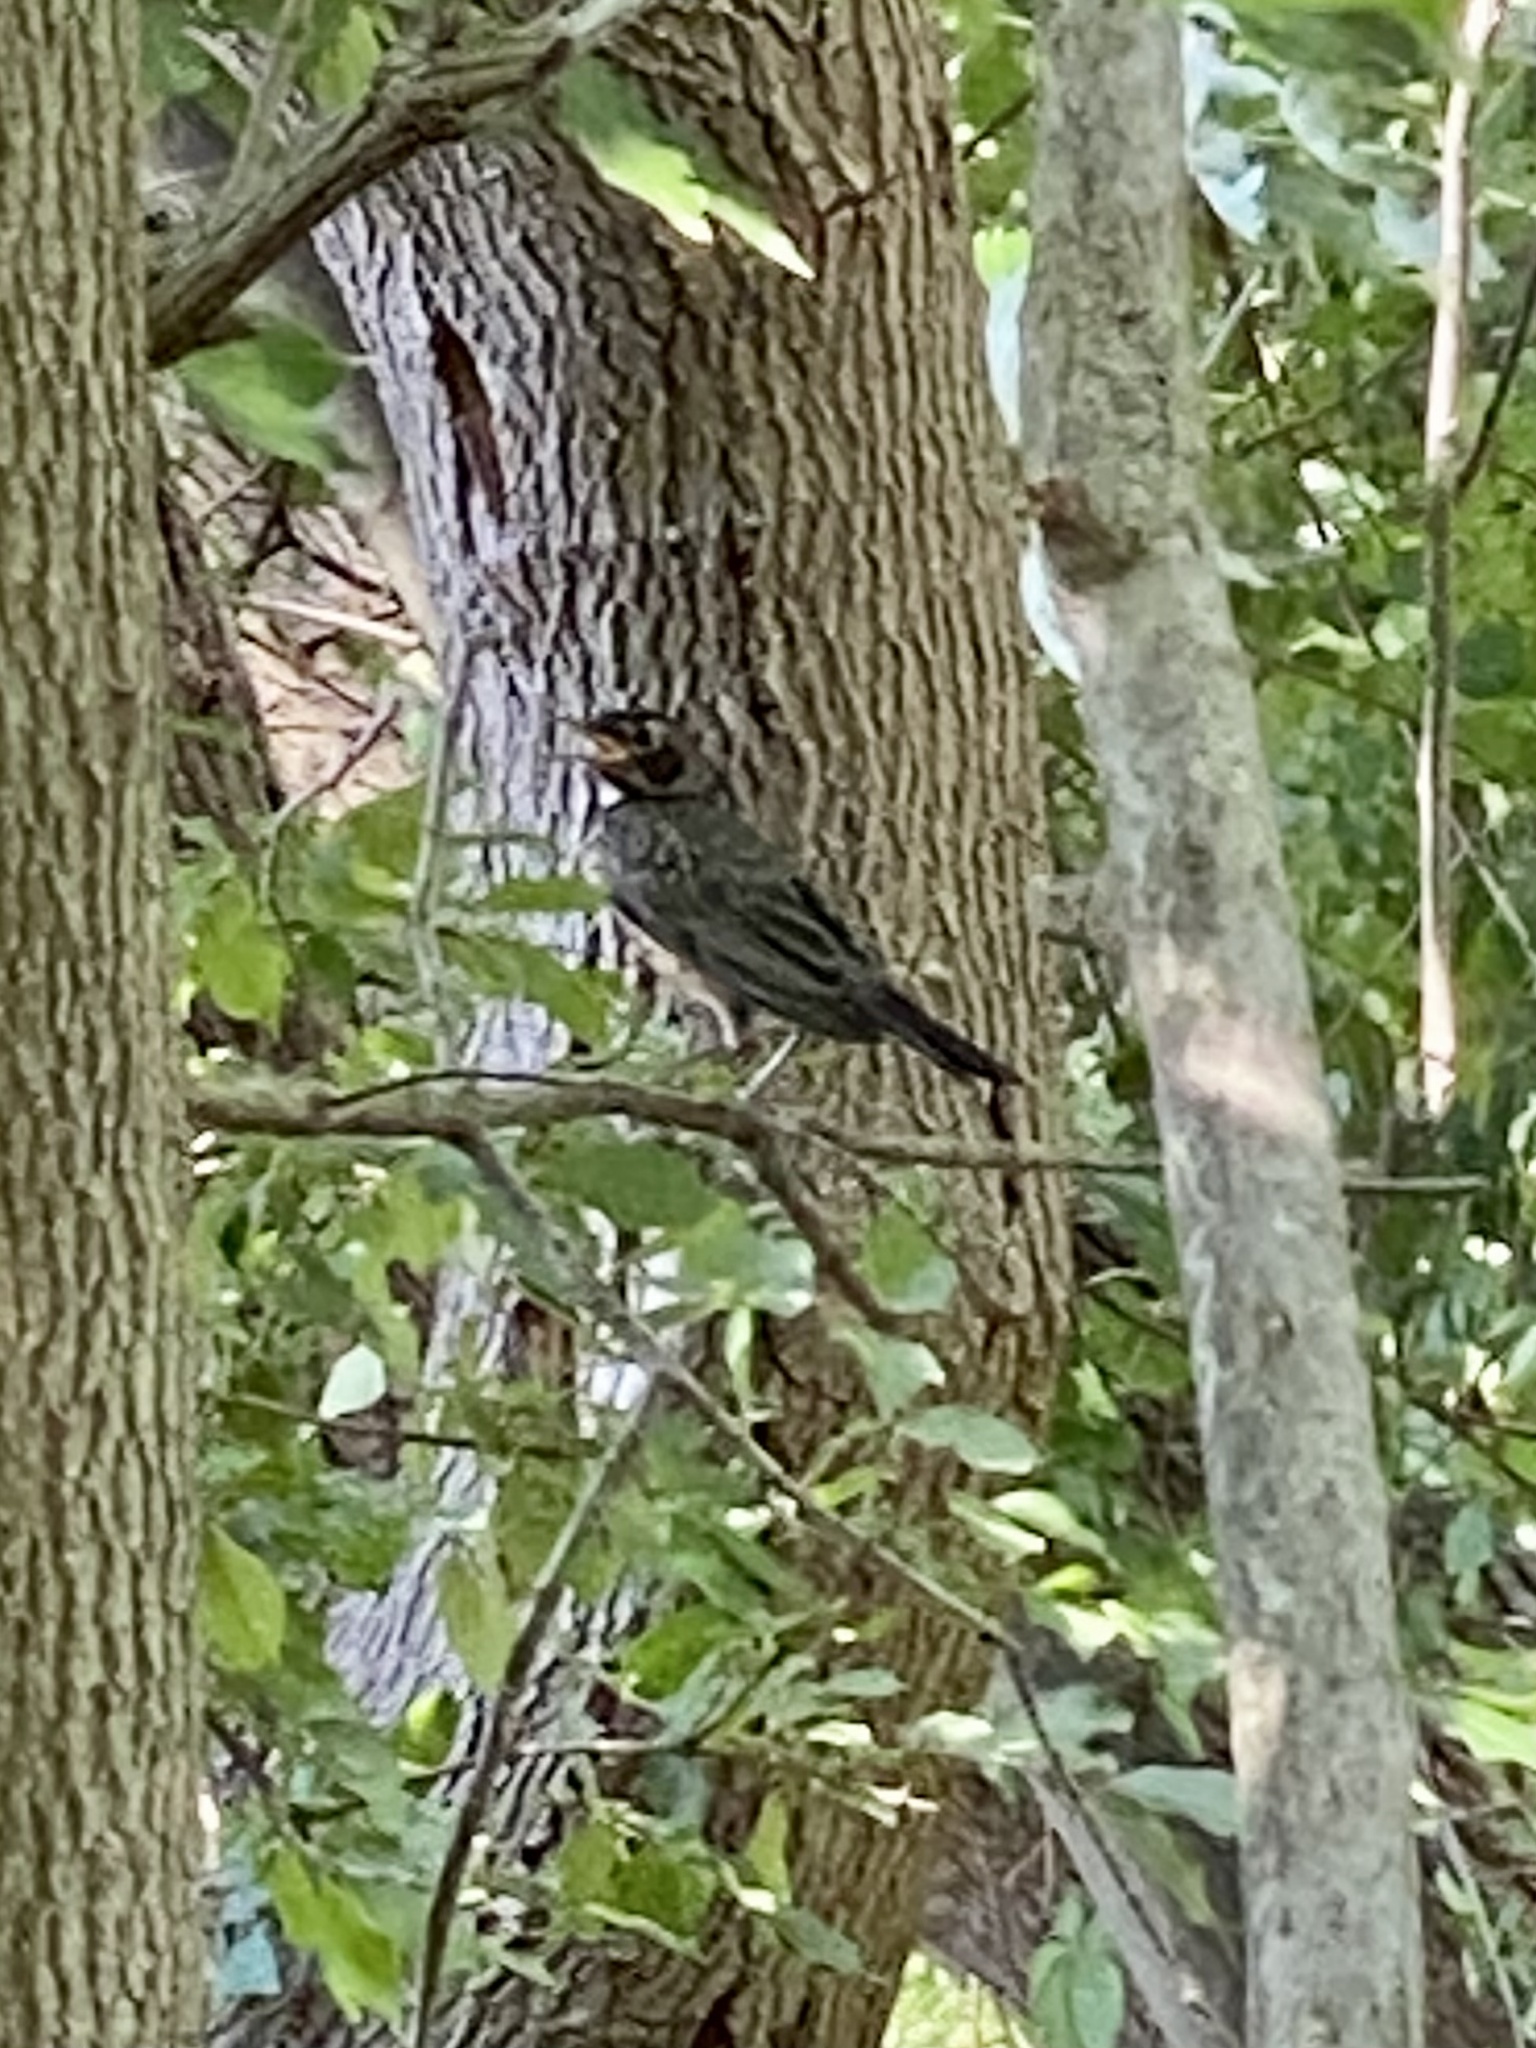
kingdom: Animalia
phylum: Chordata
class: Aves
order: Passeriformes
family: Turdidae
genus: Turdus
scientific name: Turdus migratorius
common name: American robin
